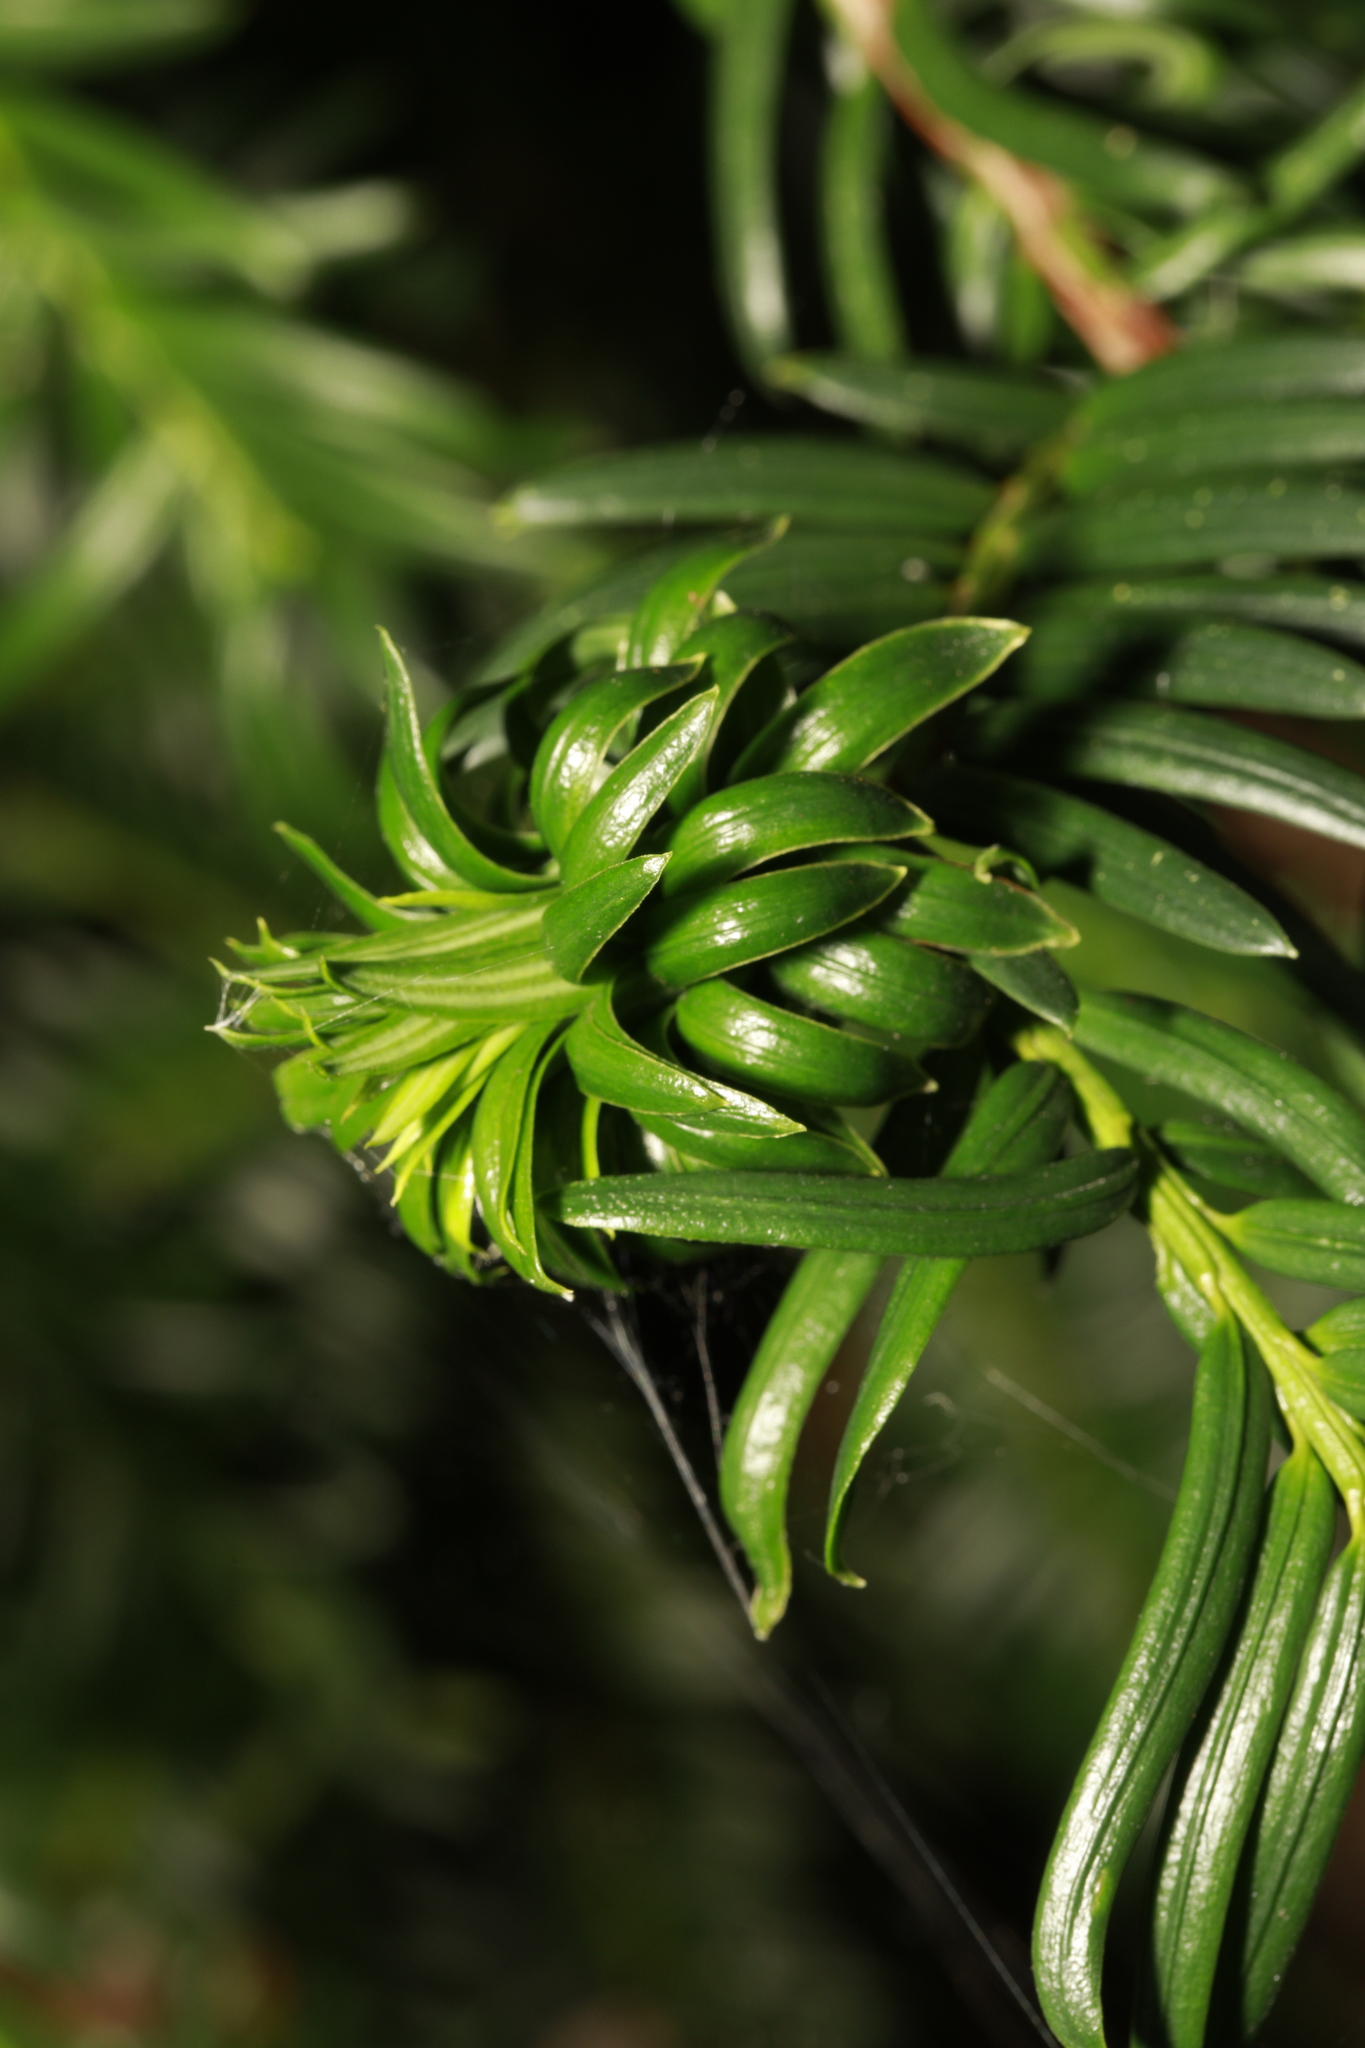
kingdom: Animalia
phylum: Arthropoda
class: Insecta
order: Diptera
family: Cecidomyiidae
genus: Taxomyia
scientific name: Taxomyia taxi
